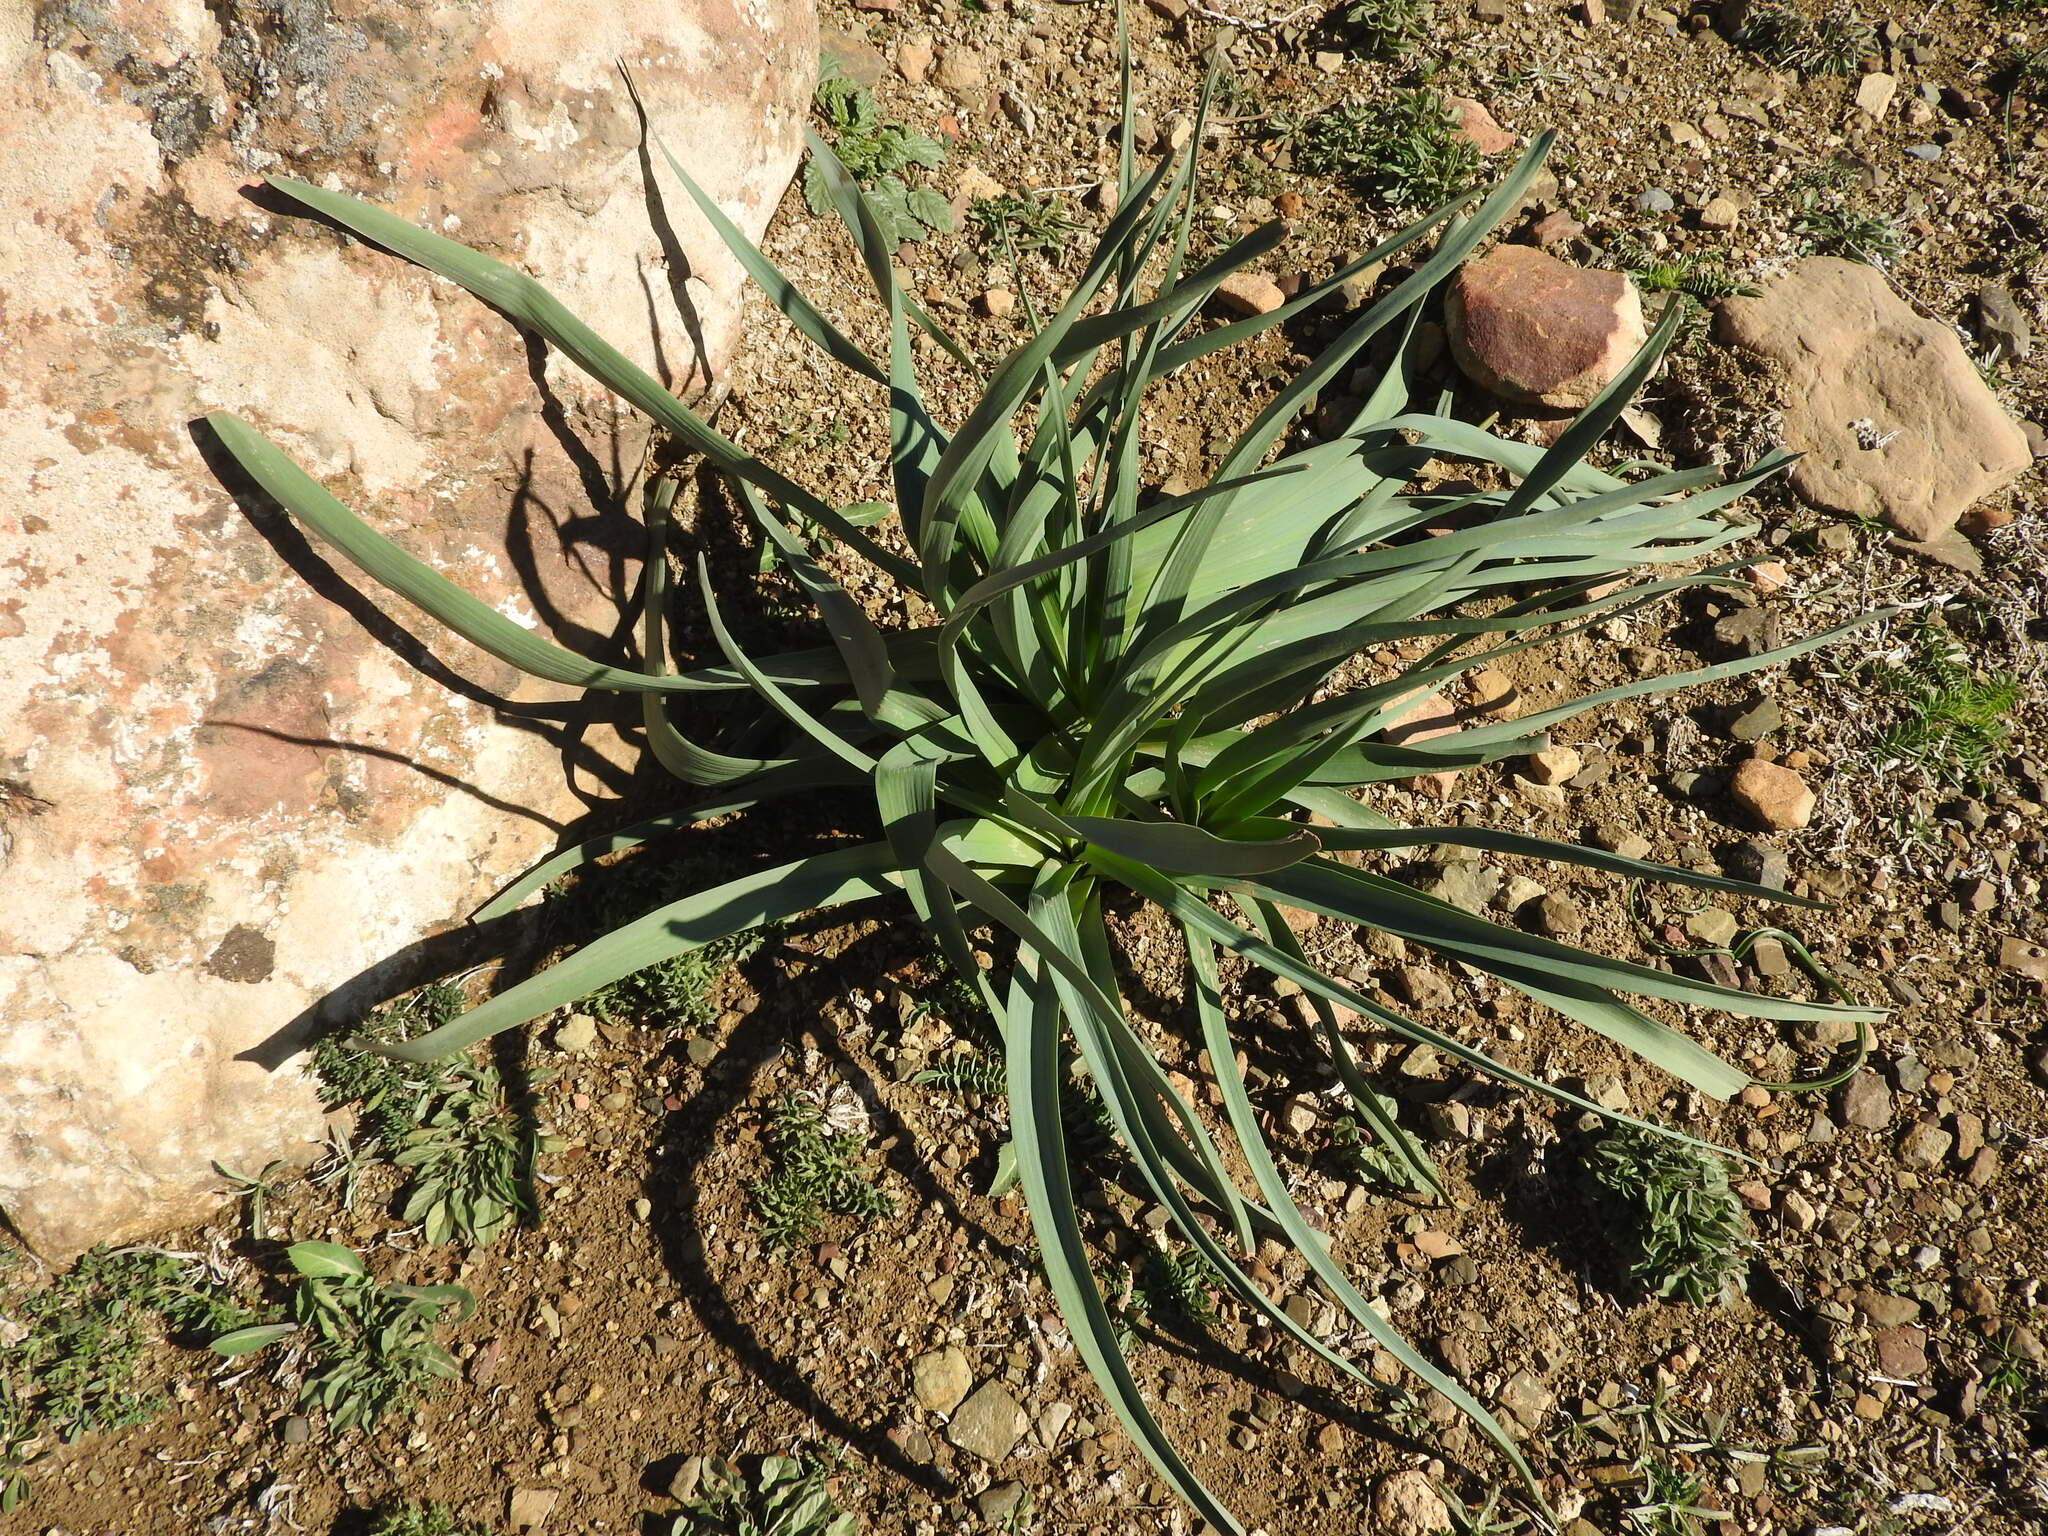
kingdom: Plantae
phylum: Tracheophyta
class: Liliopsida
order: Asparagales
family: Asphodelaceae
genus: Asphodelus
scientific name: Asphodelus ramosus
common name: Silverrod
